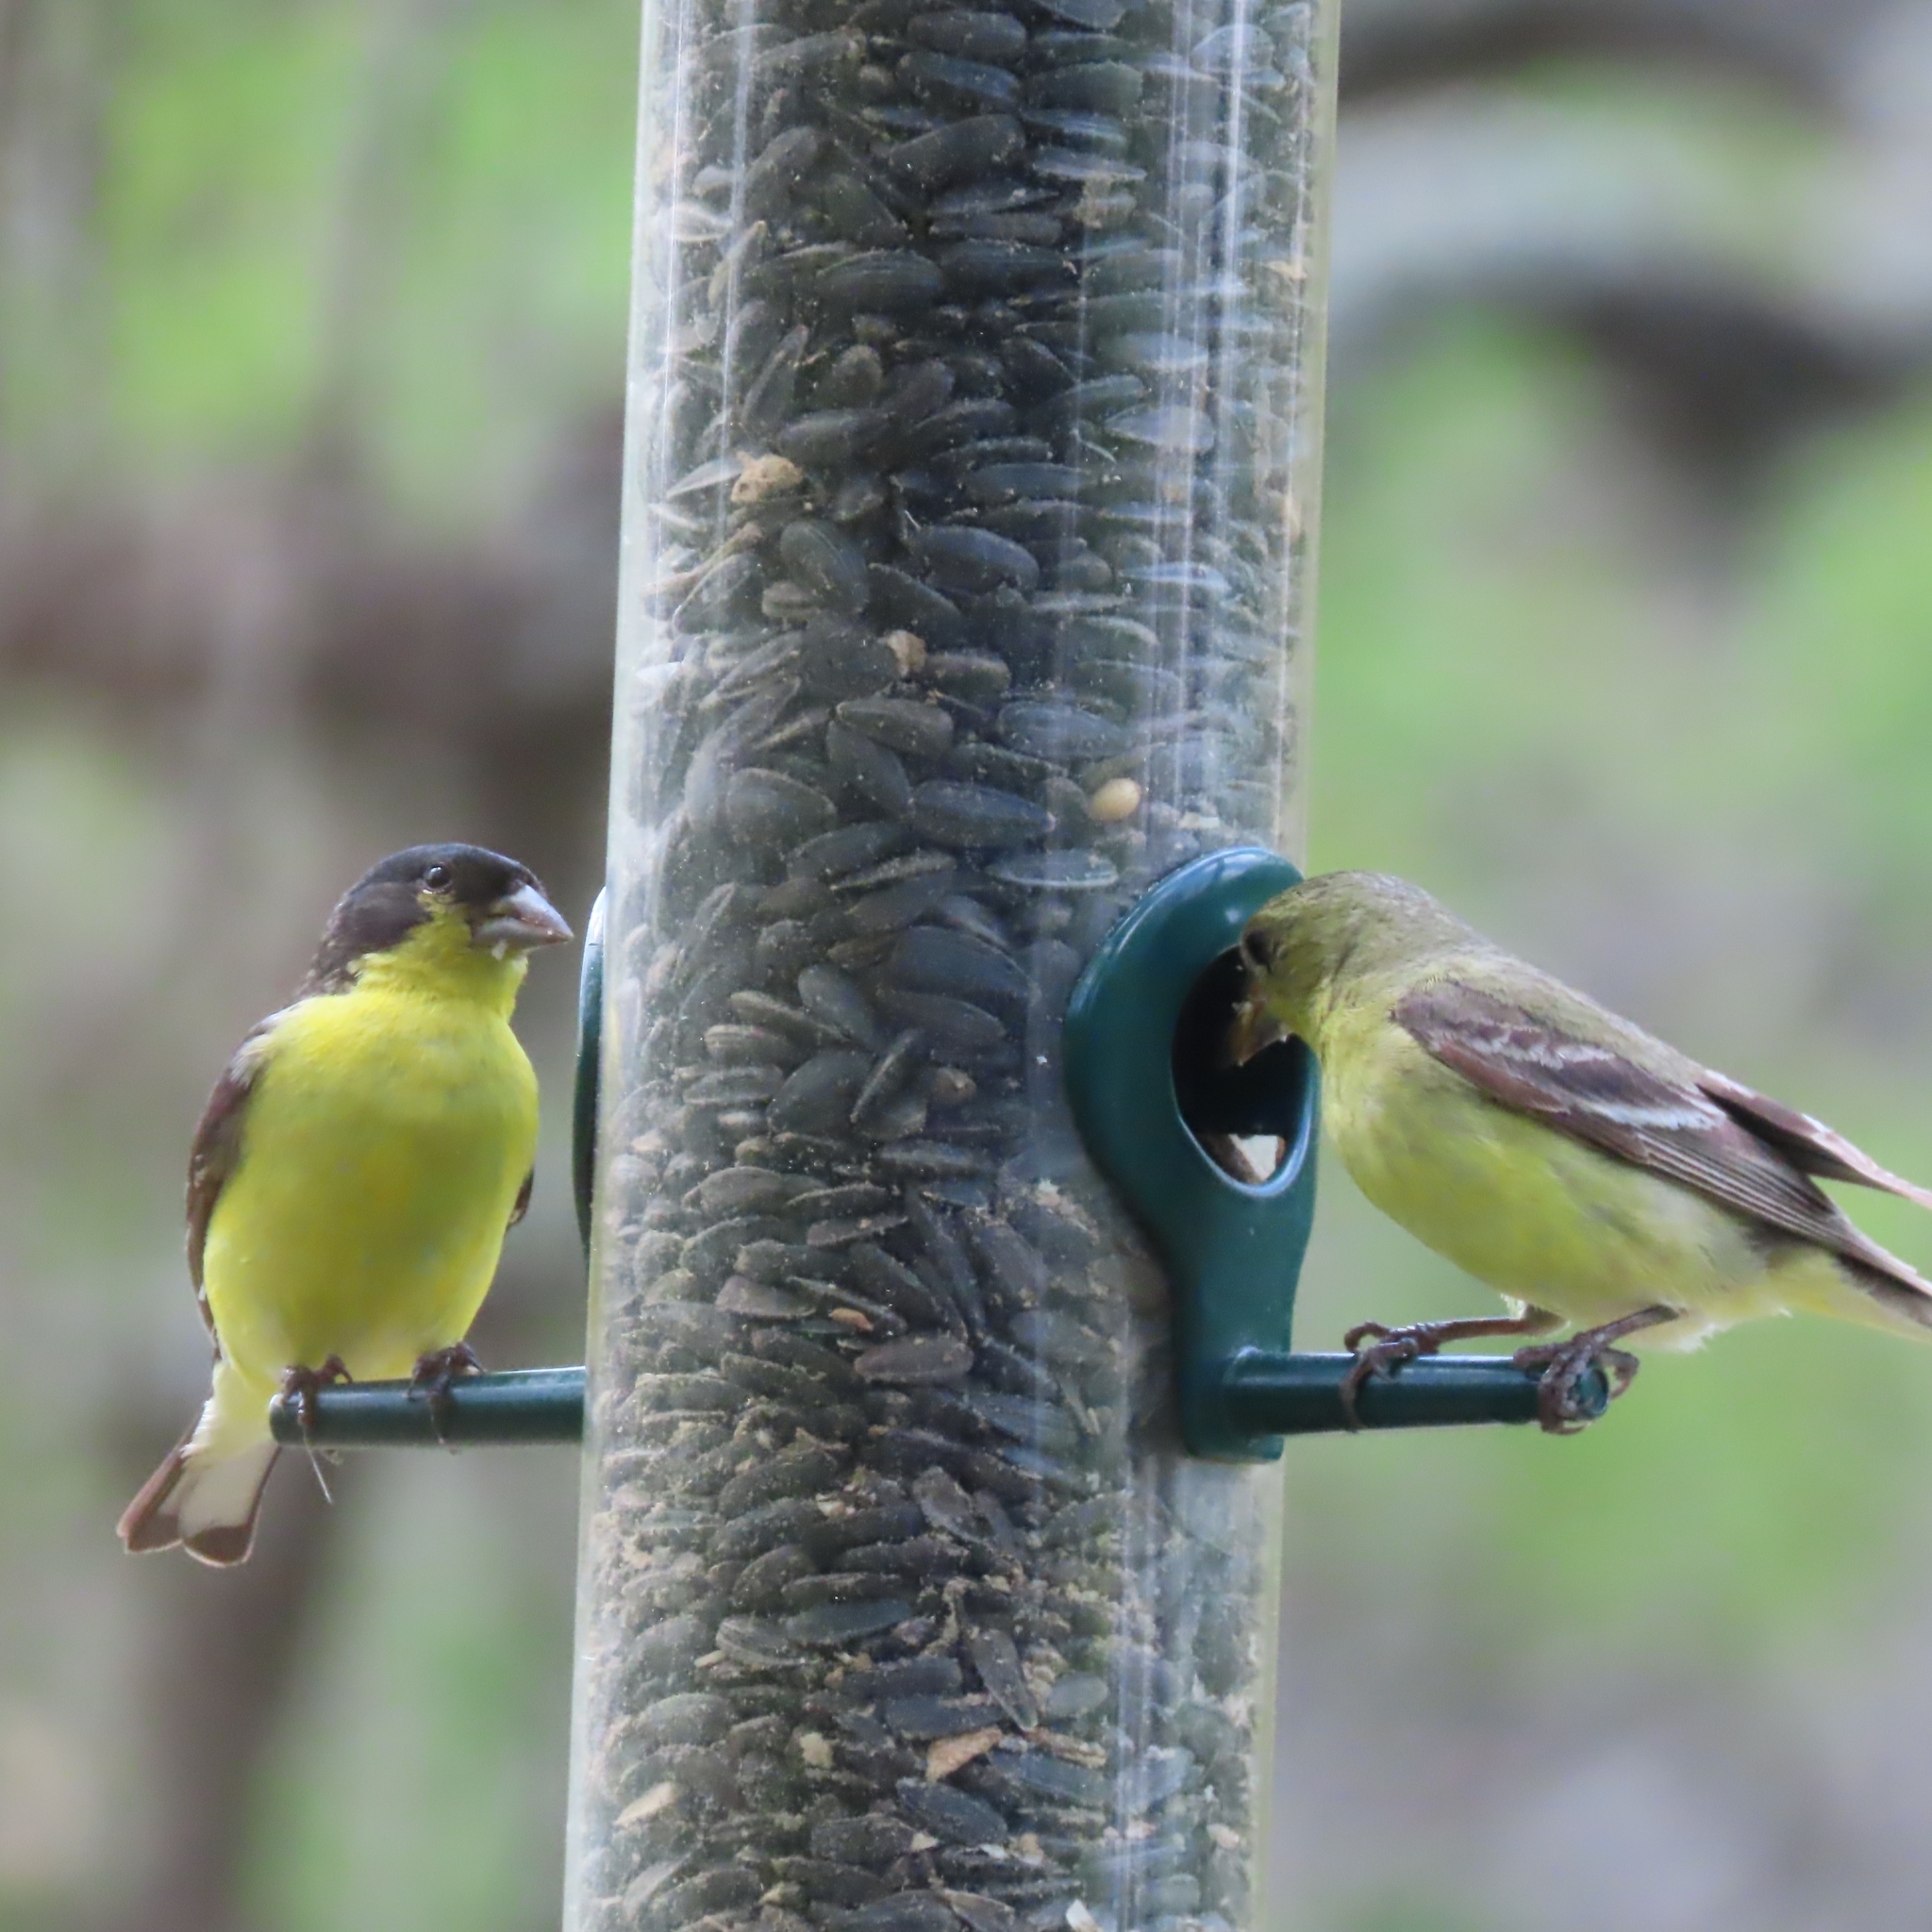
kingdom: Animalia
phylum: Chordata
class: Aves
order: Passeriformes
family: Fringillidae
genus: Spinus
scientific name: Spinus psaltria
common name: Lesser goldfinch
